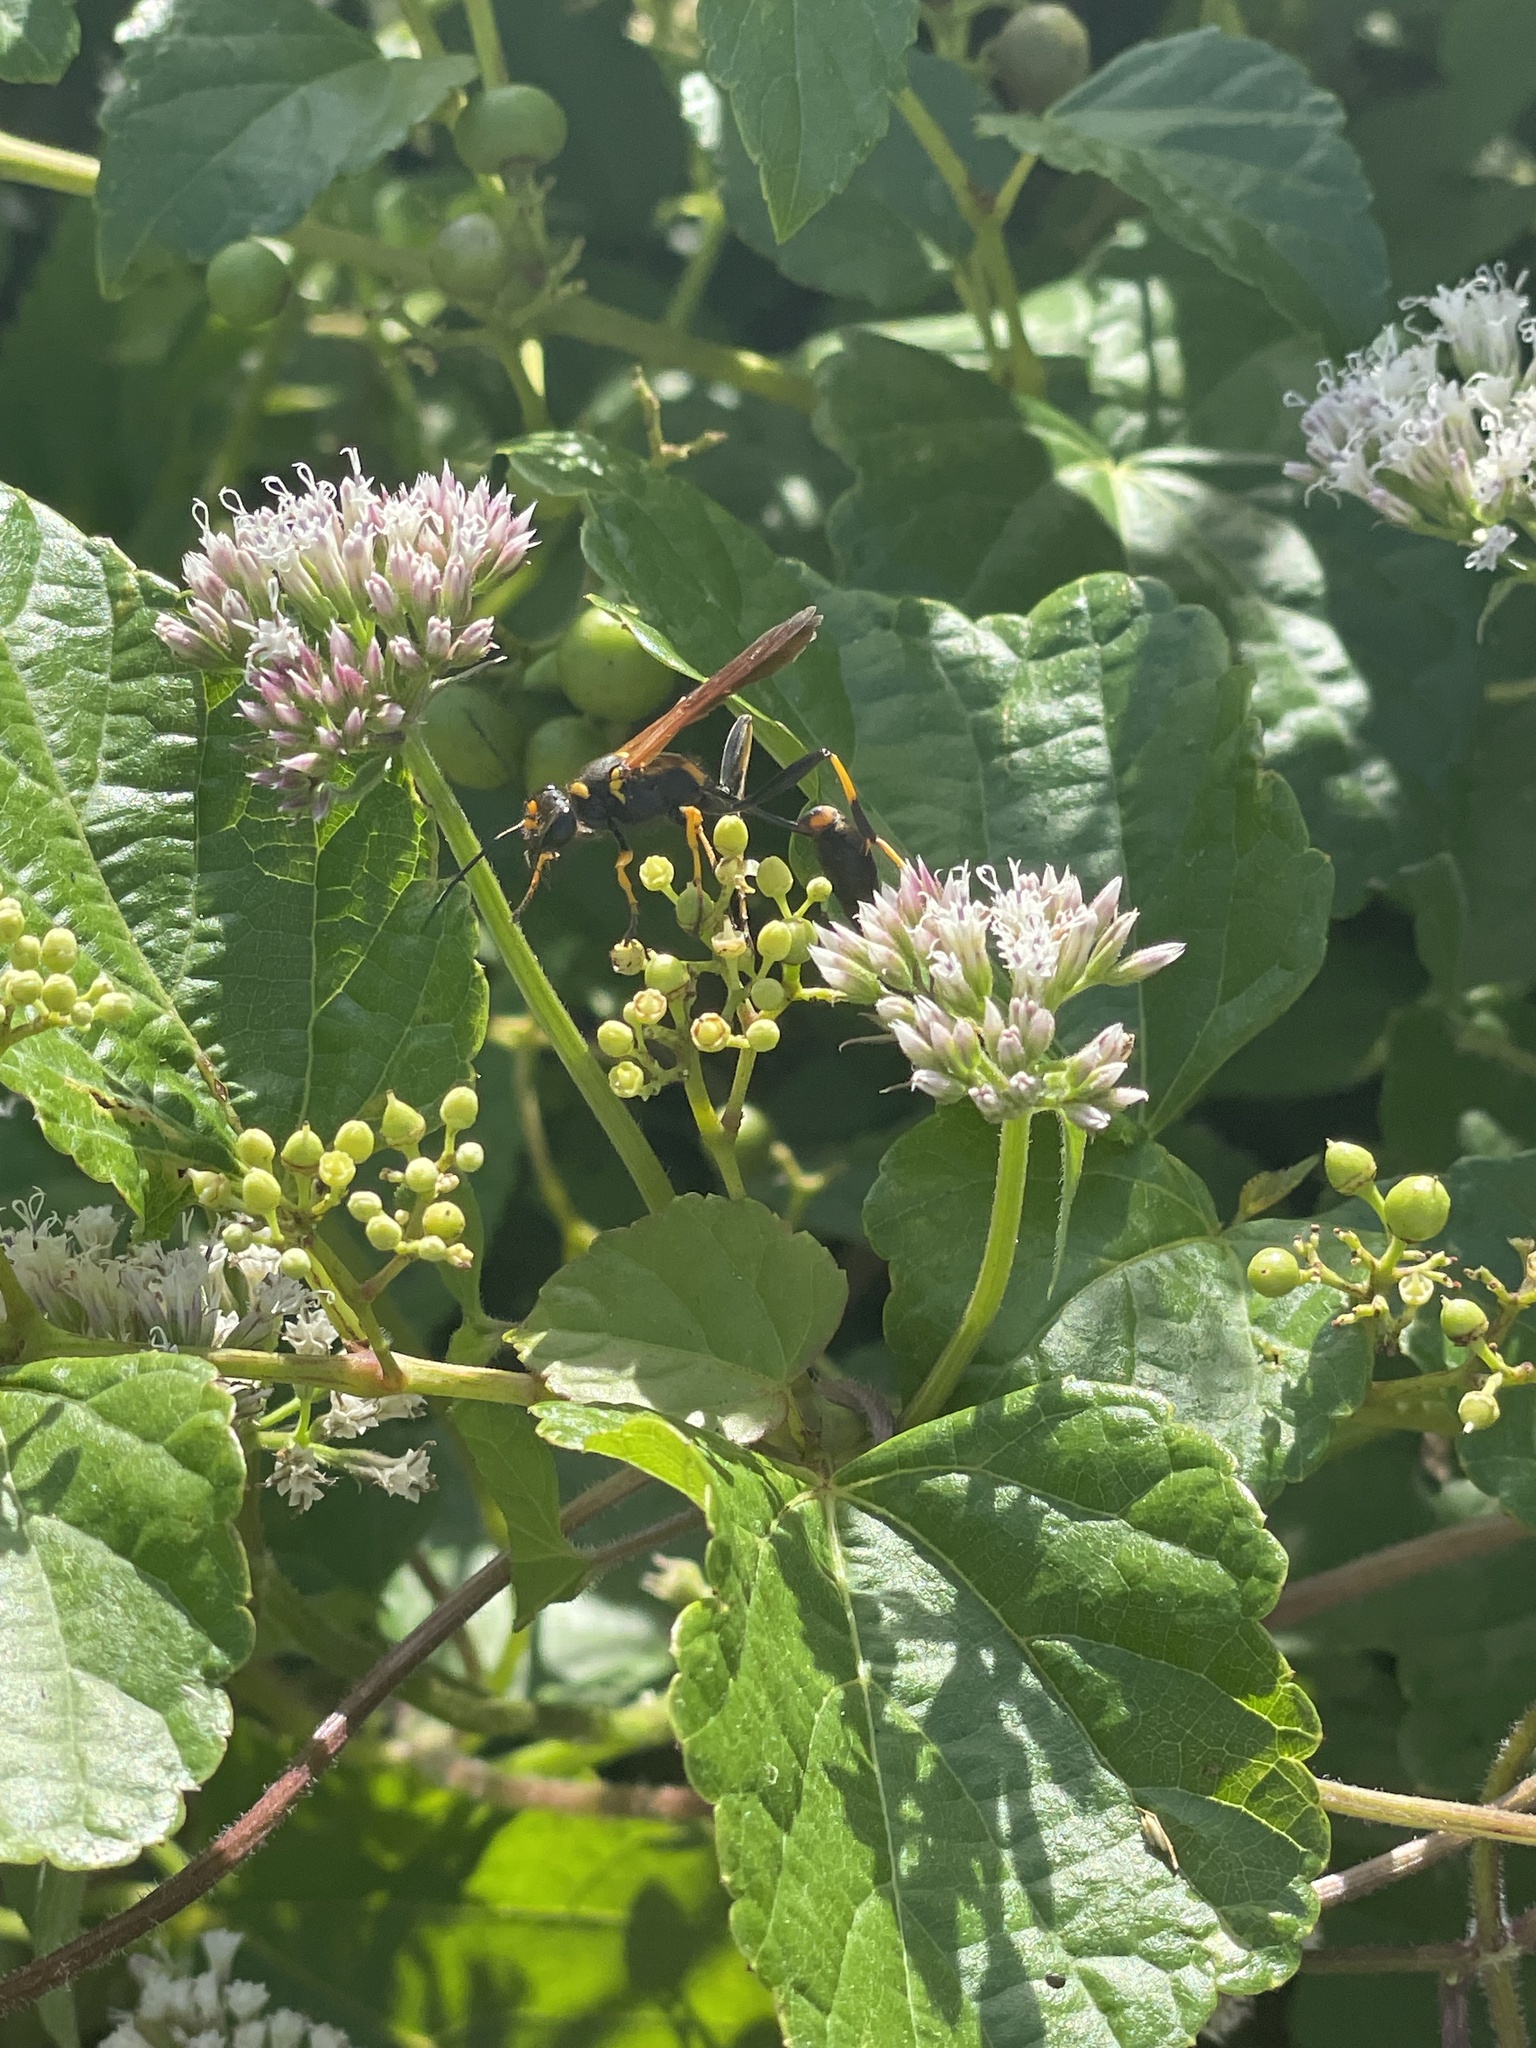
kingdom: Animalia
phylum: Arthropoda
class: Insecta
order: Hymenoptera
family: Sphecidae
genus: Sceliphron
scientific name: Sceliphron caementarium
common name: Mud dauber
